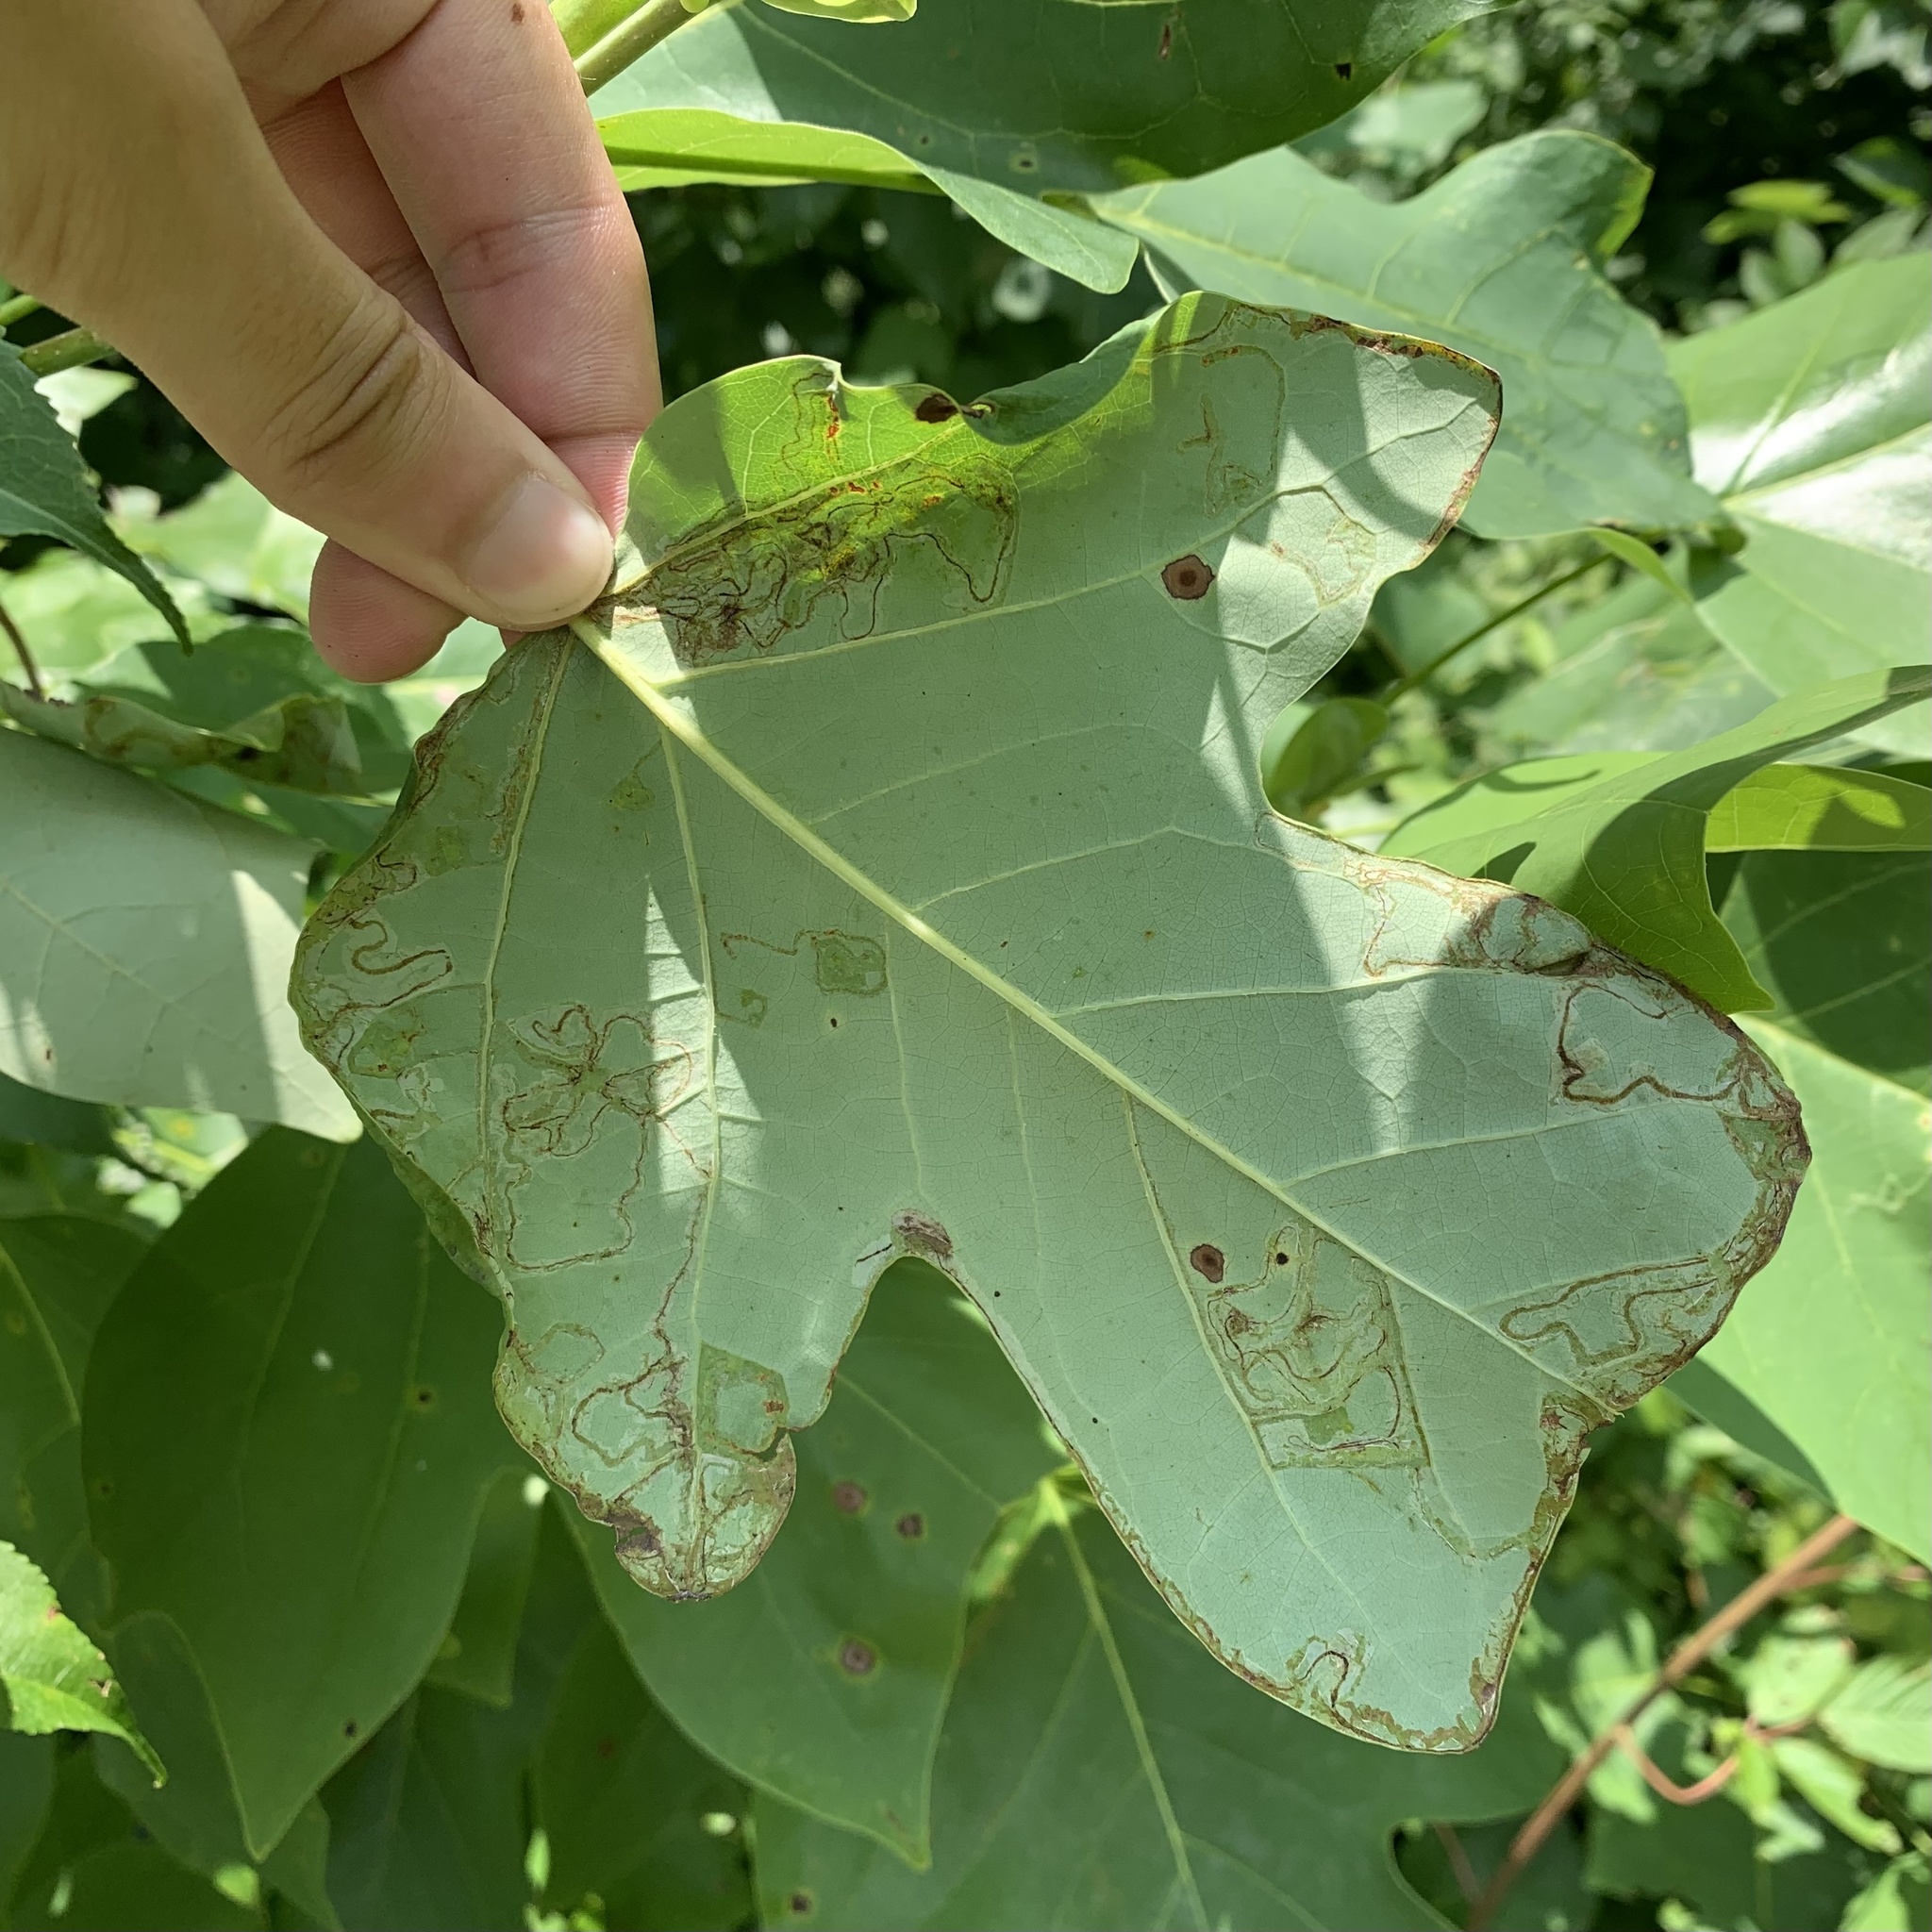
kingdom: Animalia
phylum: Arthropoda
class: Insecta
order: Lepidoptera
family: Gracillariidae
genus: Phyllocnistis
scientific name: Phyllocnistis liriodendronella
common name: Tulip tree leaf miner
